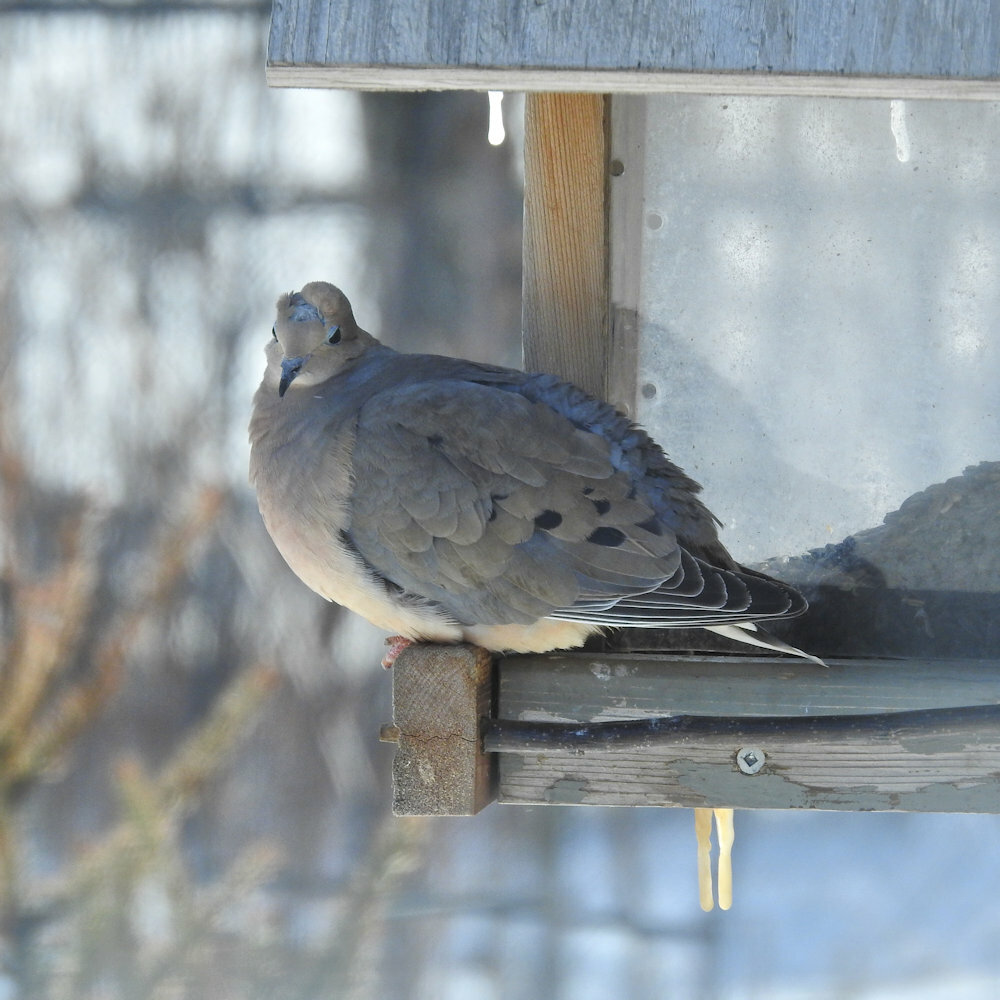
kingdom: Animalia
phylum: Chordata
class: Aves
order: Columbiformes
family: Columbidae
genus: Zenaida
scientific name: Zenaida macroura
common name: Mourning dove
